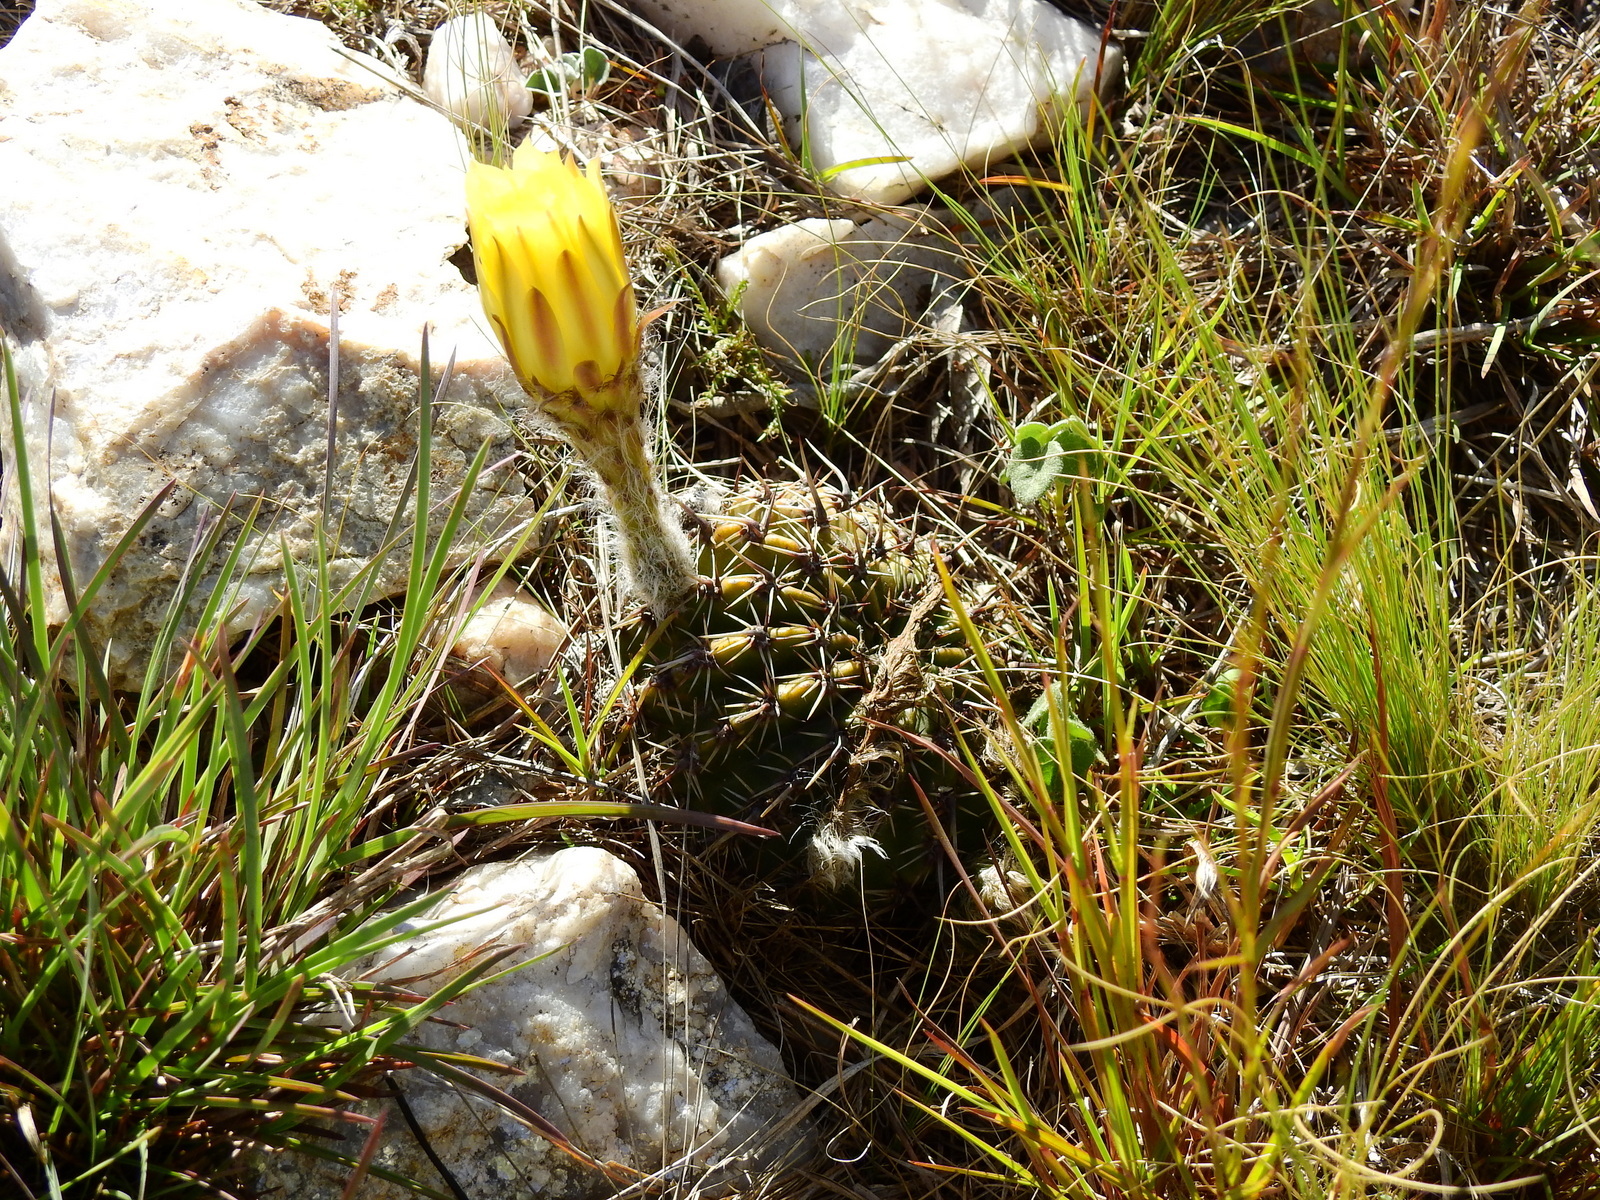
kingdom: Plantae
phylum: Tracheophyta
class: Magnoliopsida
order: Caryophyllales
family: Cactaceae
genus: Echinopsis
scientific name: Echinopsis aurea
